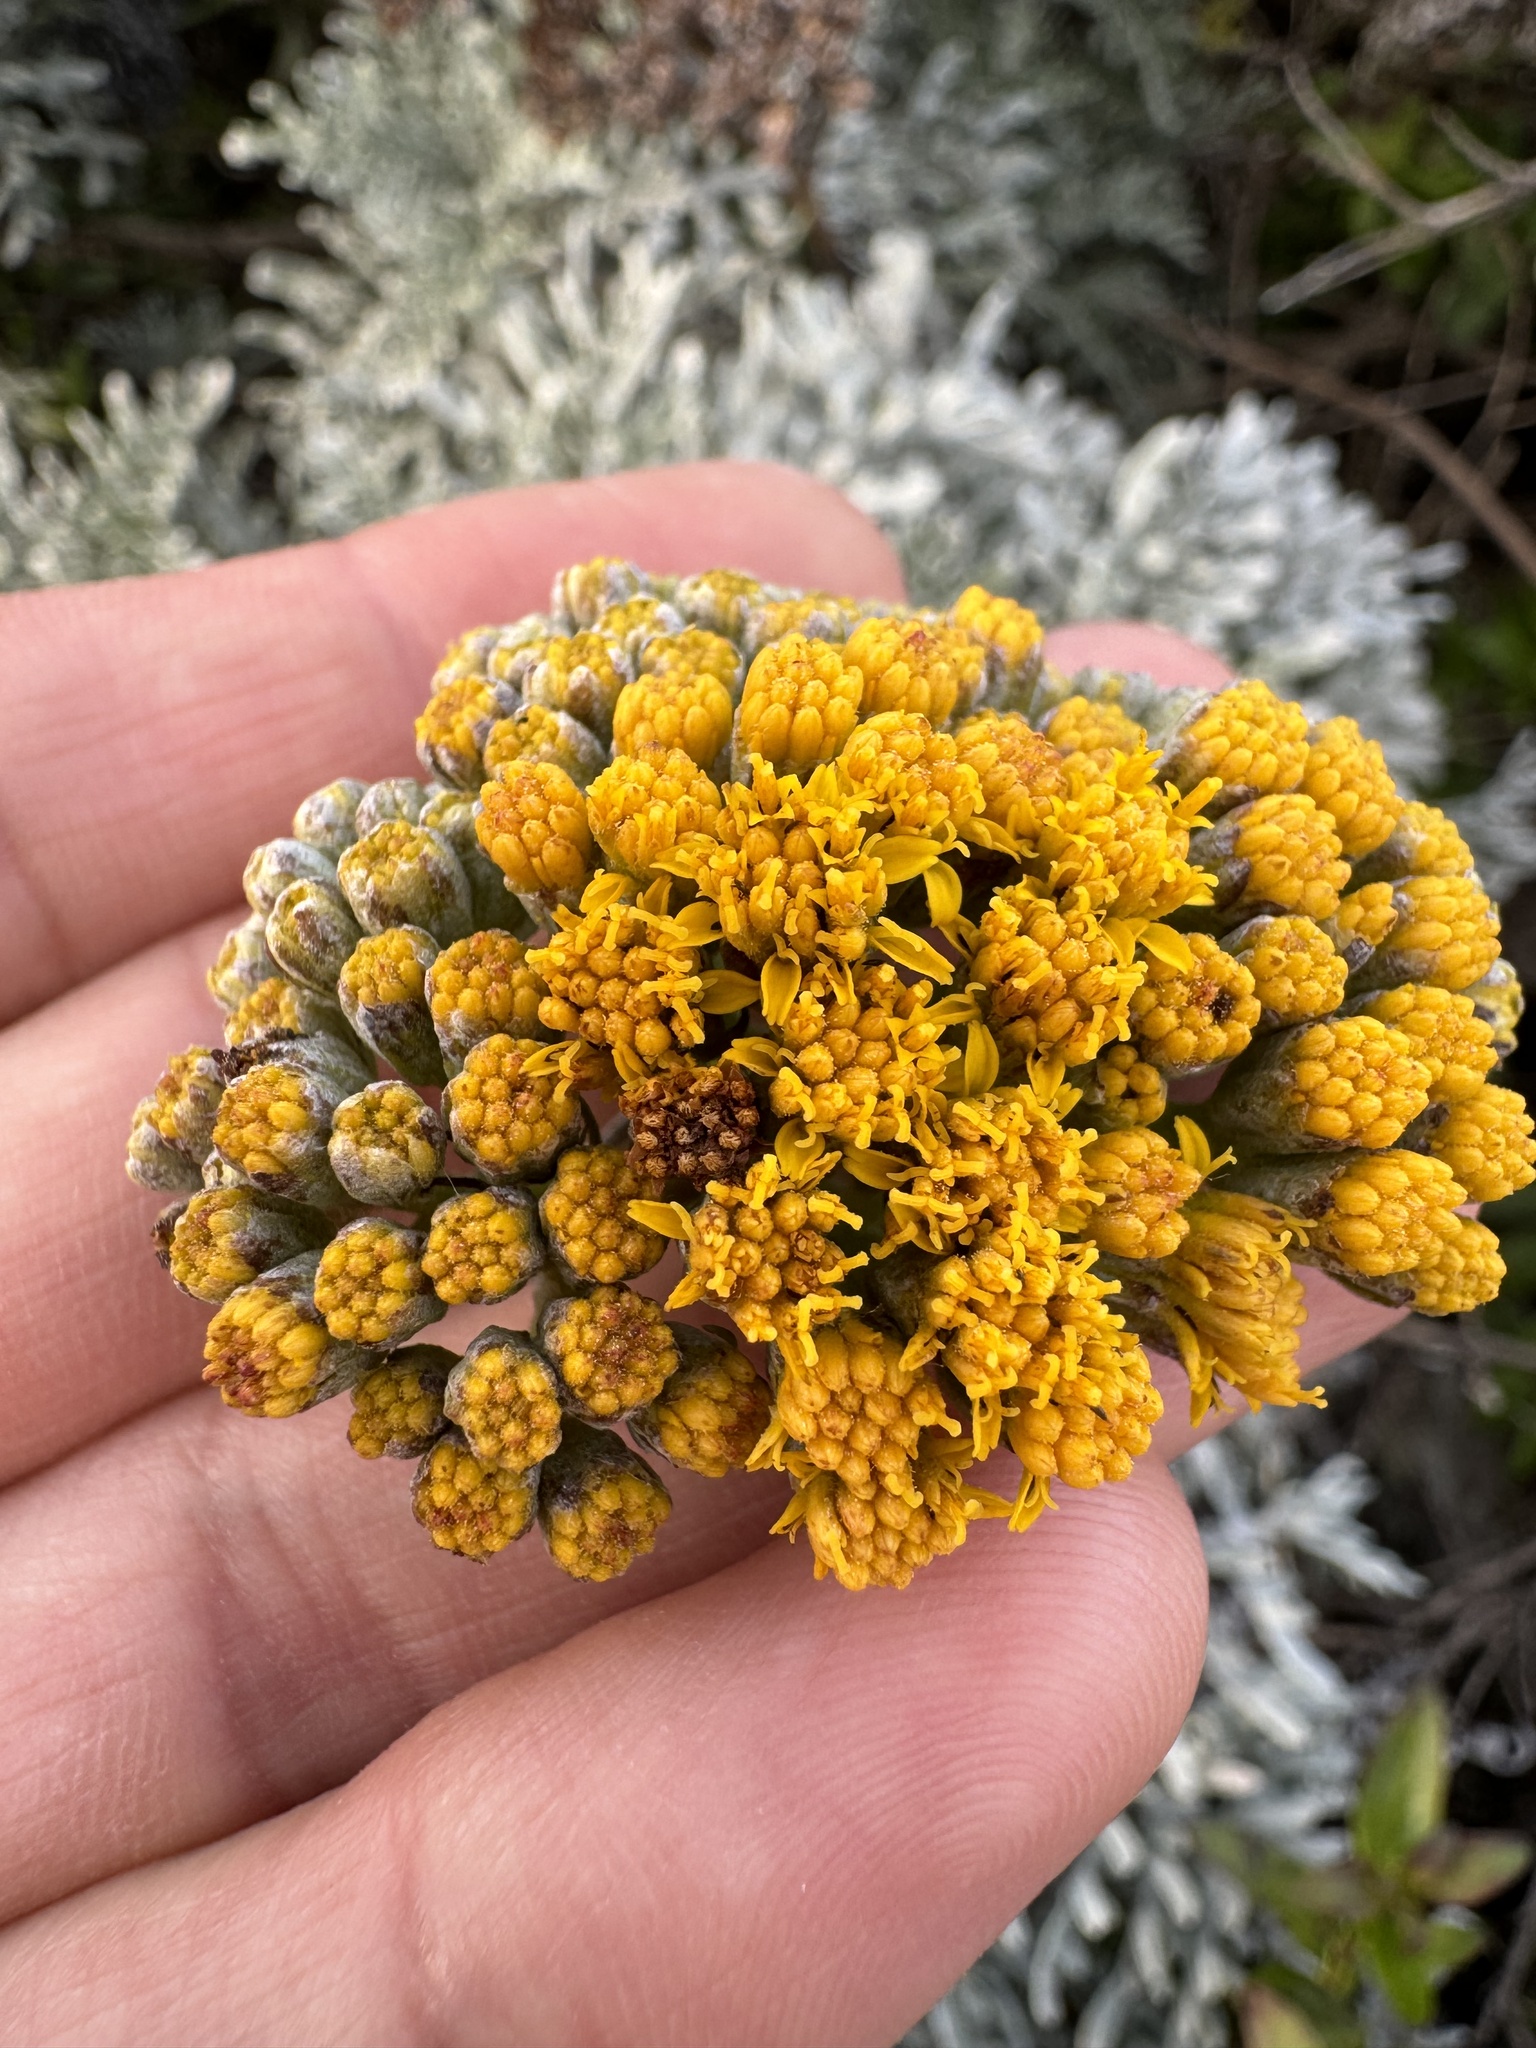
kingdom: Plantae
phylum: Tracheophyta
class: Magnoliopsida
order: Asterales
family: Asteraceae
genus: Constancea
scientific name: Constancea nevinii
